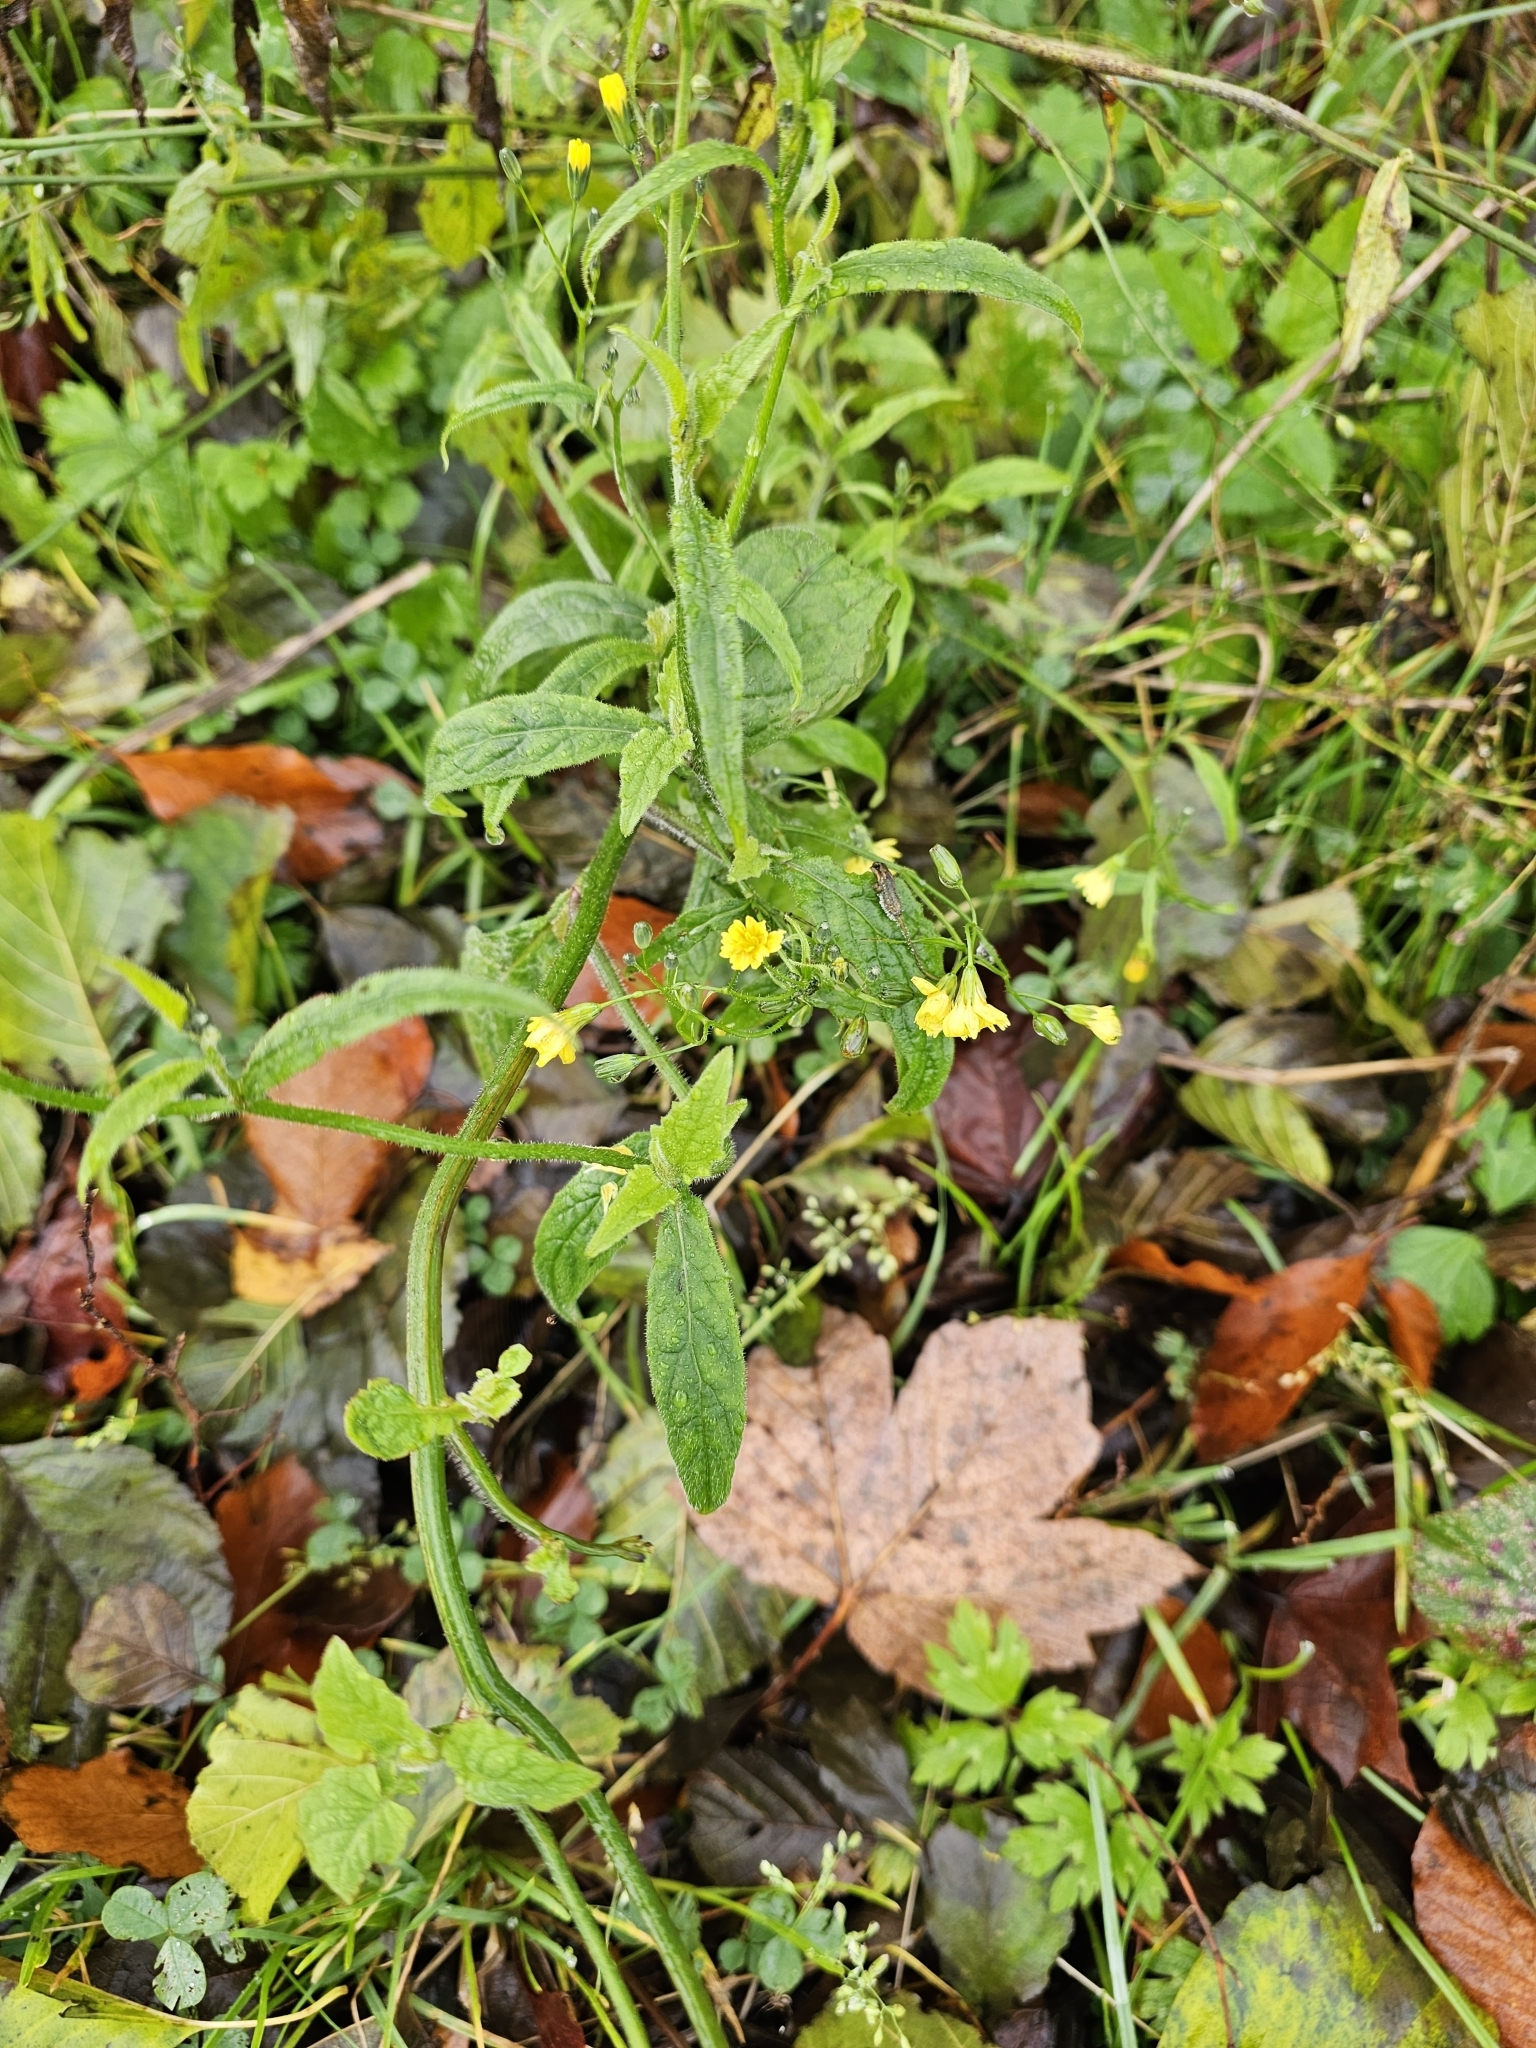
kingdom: Plantae
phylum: Tracheophyta
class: Magnoliopsida
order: Asterales
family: Asteraceae
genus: Lapsana
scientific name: Lapsana communis
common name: Nipplewort
